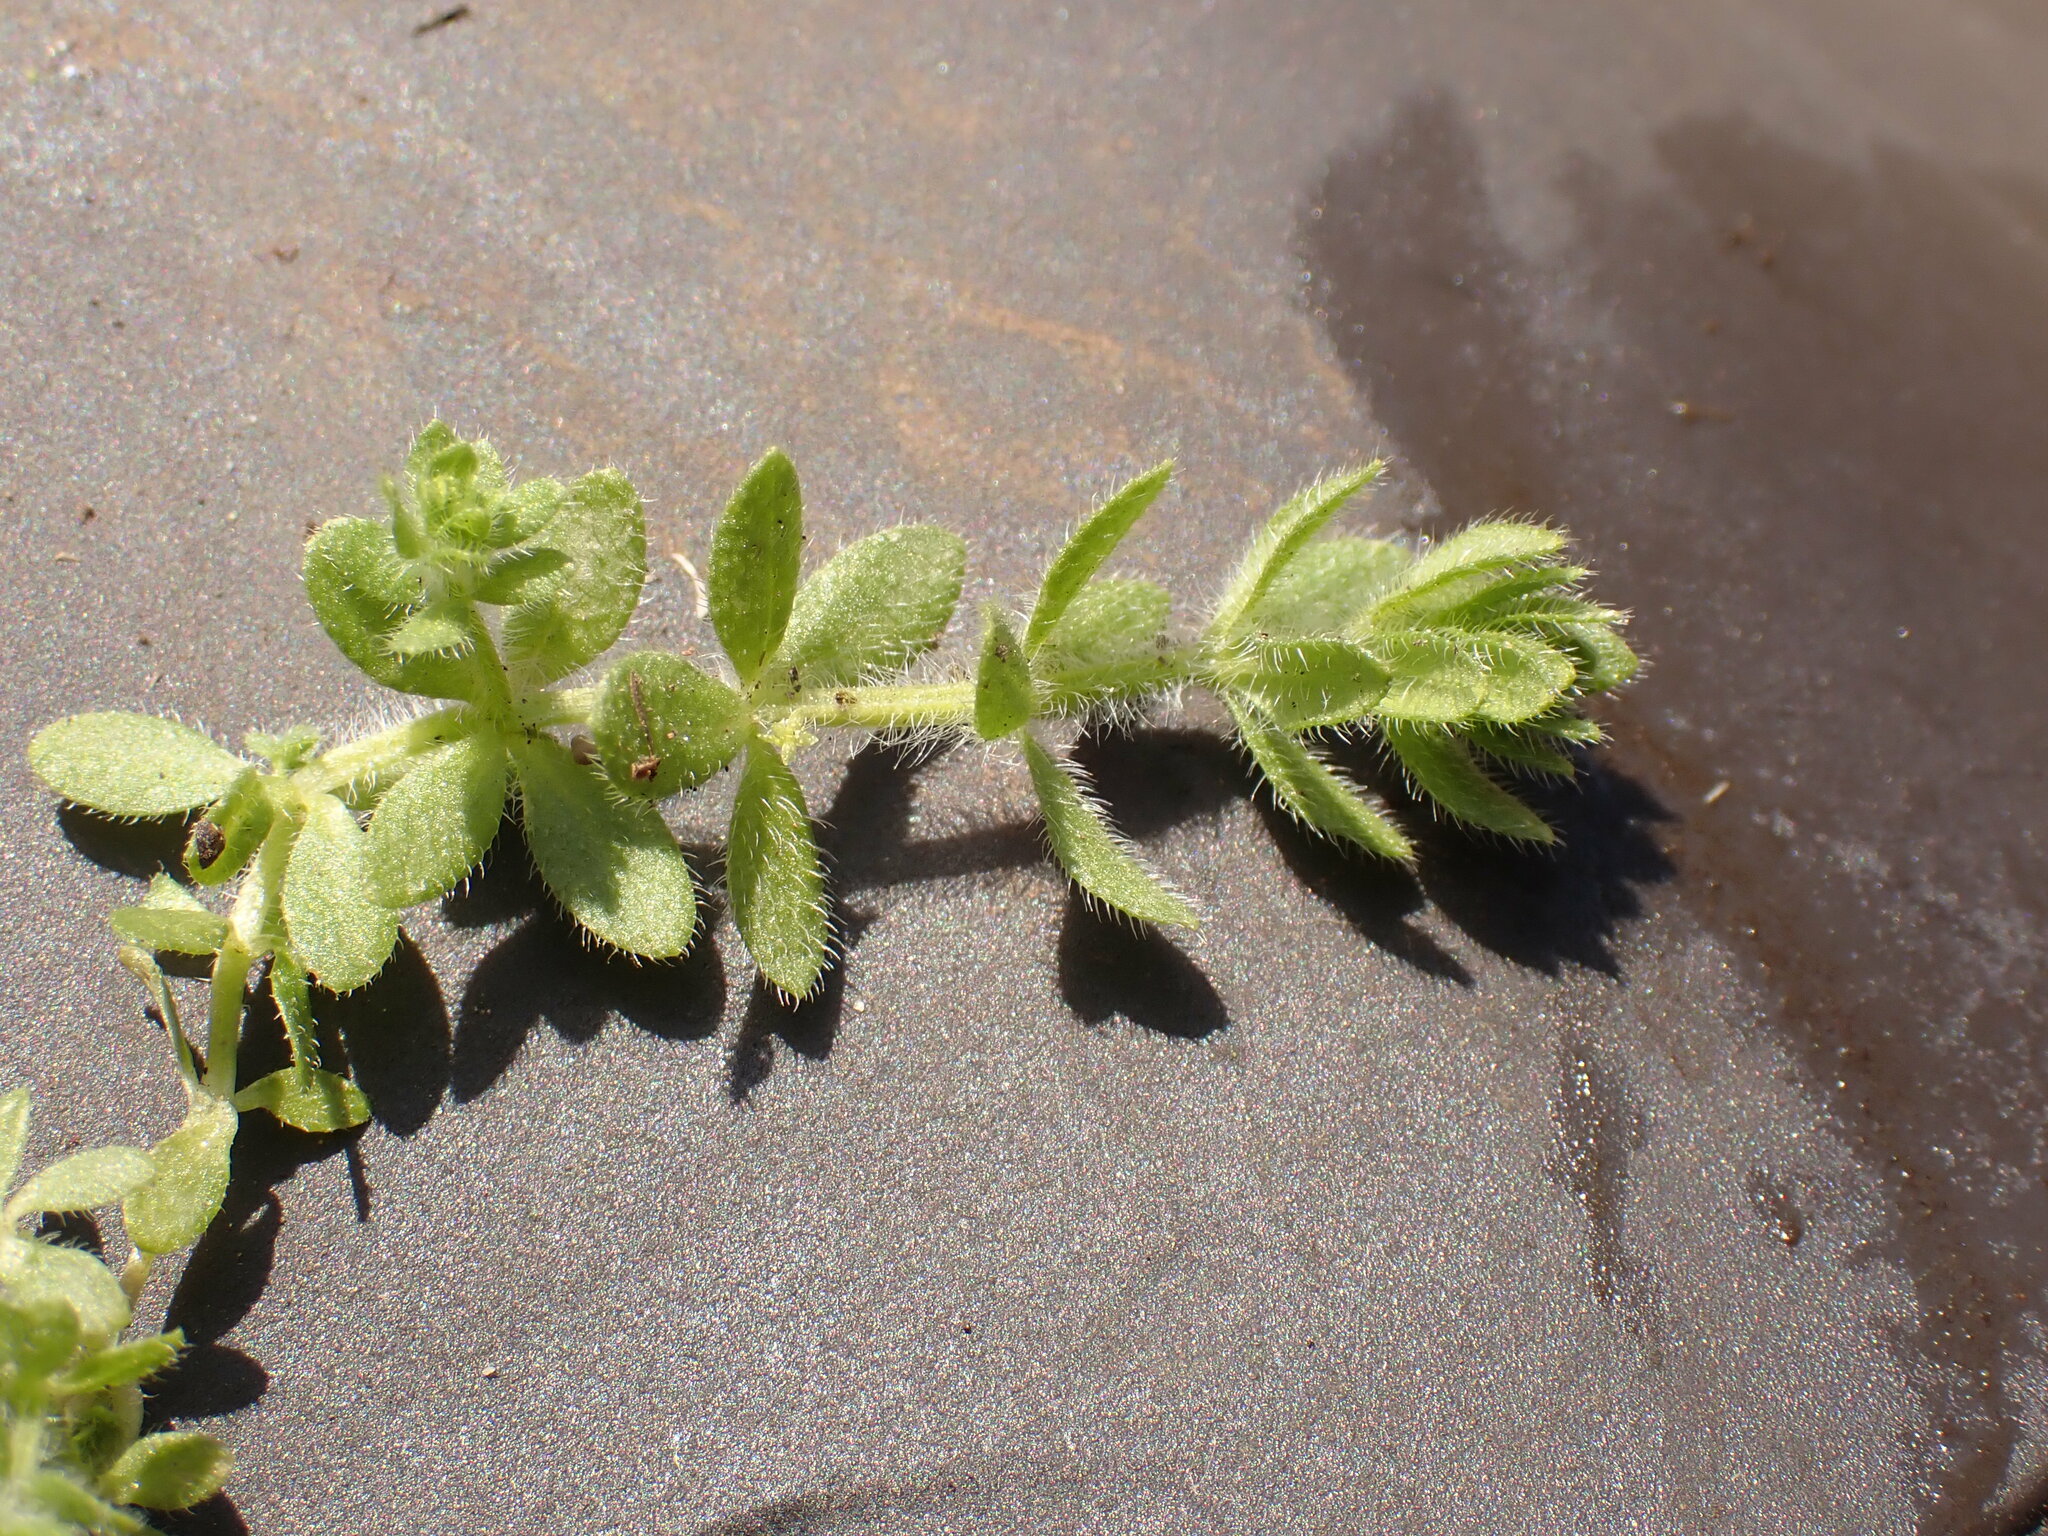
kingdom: Plantae
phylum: Tracheophyta
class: Magnoliopsida
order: Gentianales
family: Rubiaceae
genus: Cruciata
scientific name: Cruciata pedemontana
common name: Piedmont bedstraw
